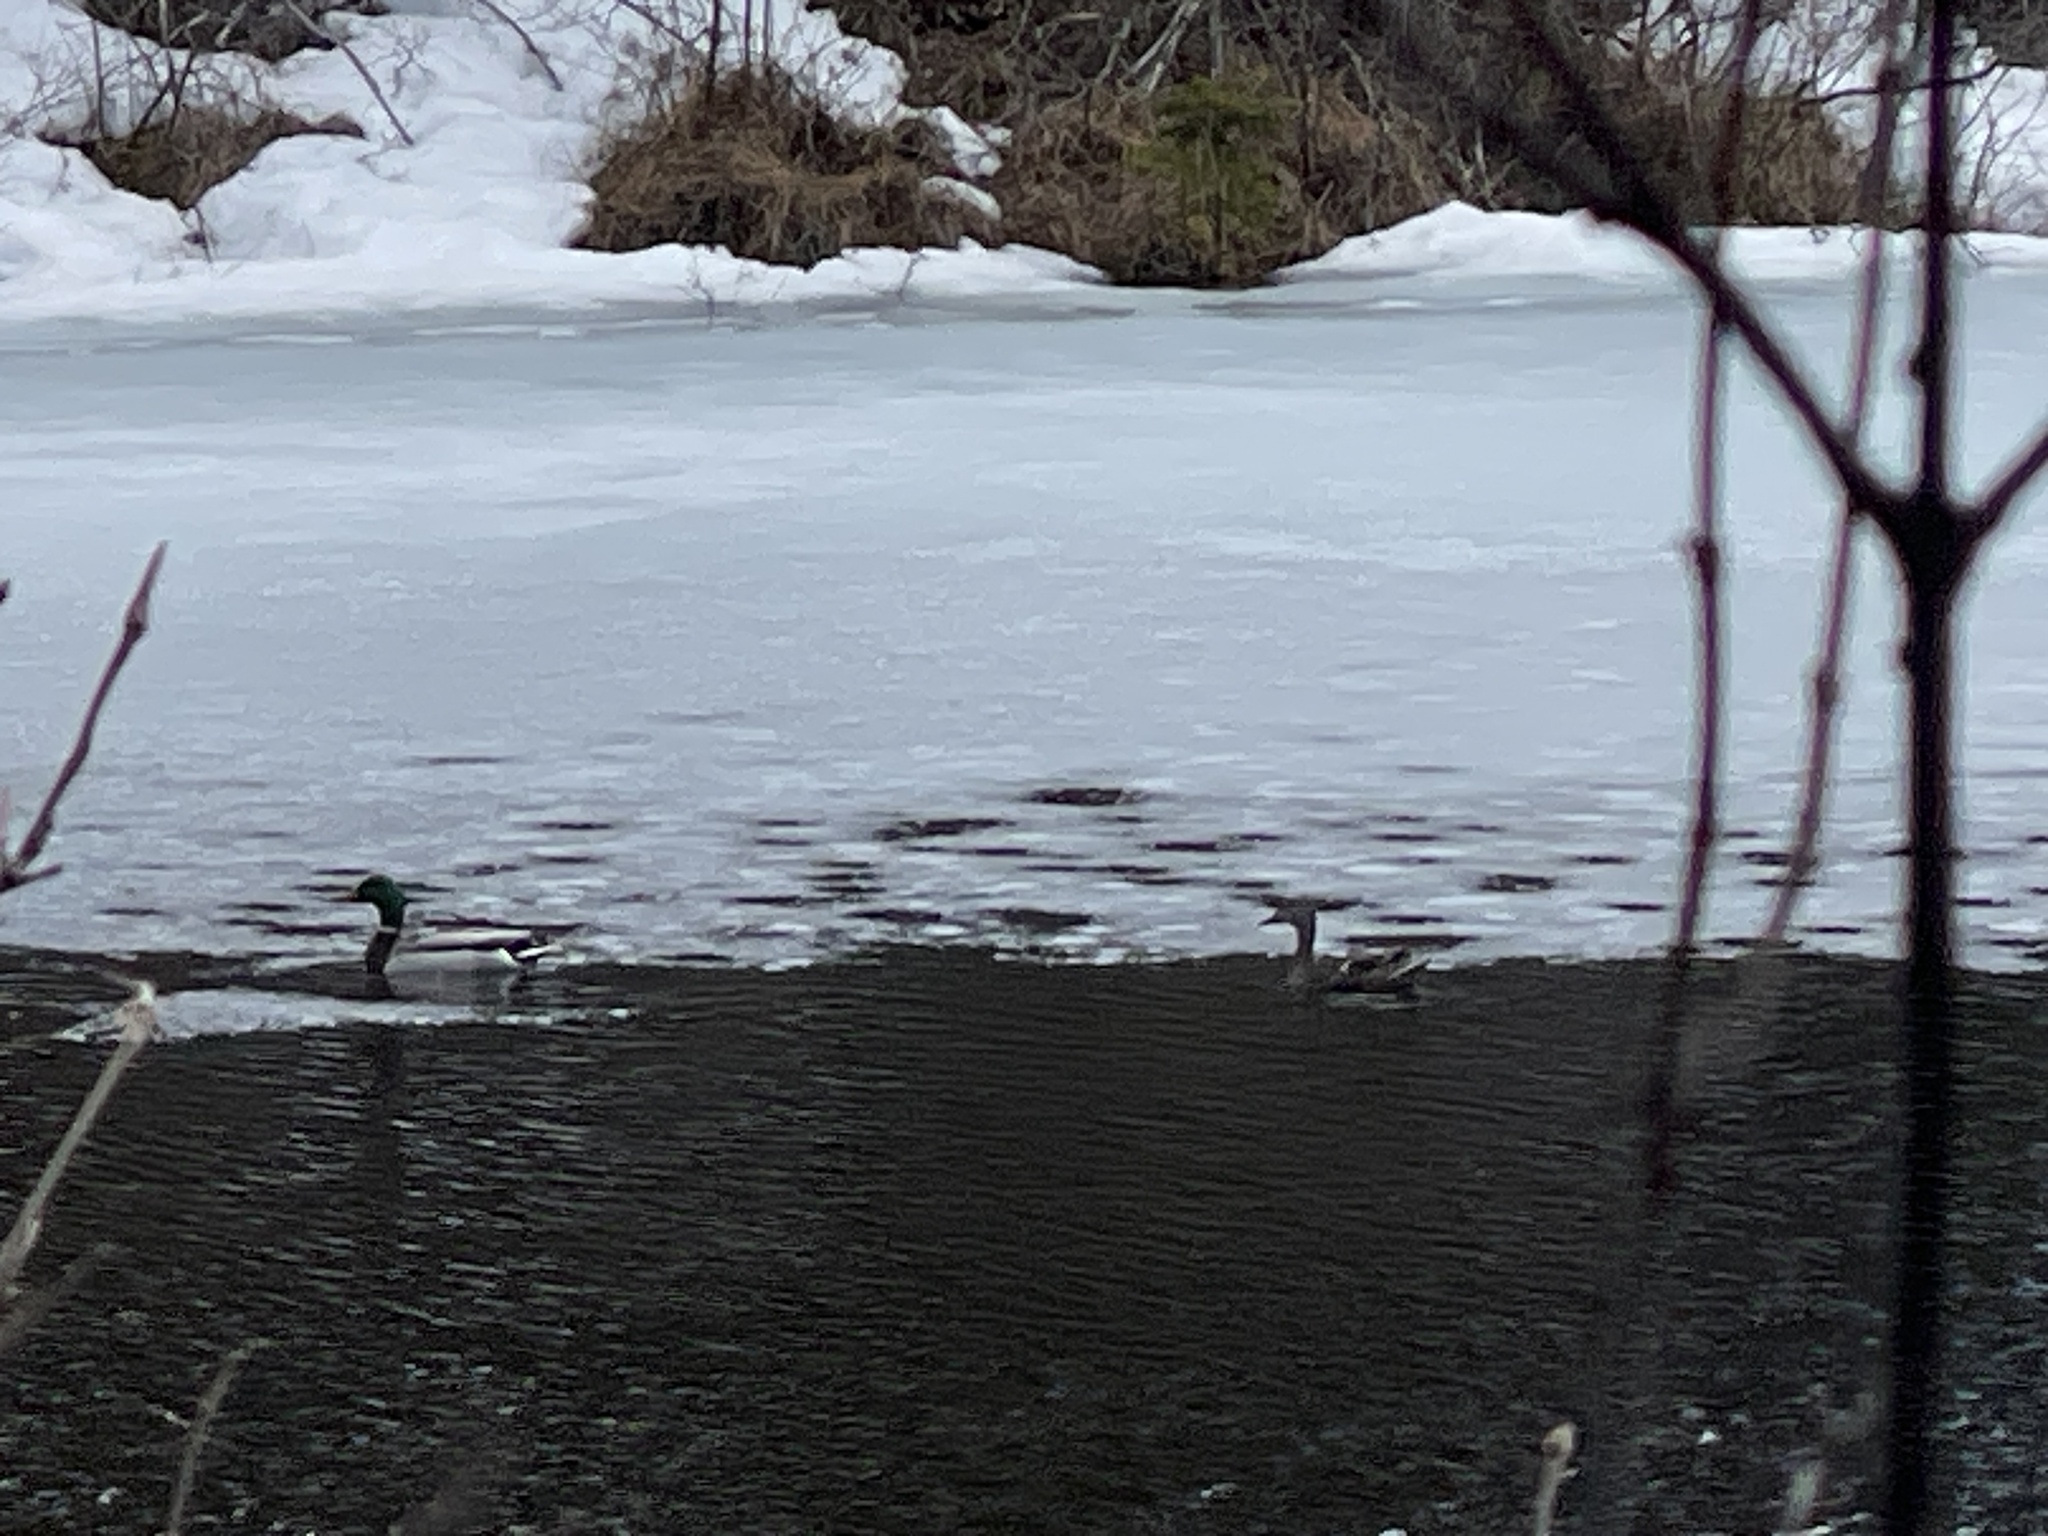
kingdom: Animalia
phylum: Chordata
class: Aves
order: Anseriformes
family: Anatidae
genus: Anas
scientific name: Anas platyrhynchos
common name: Mallard
